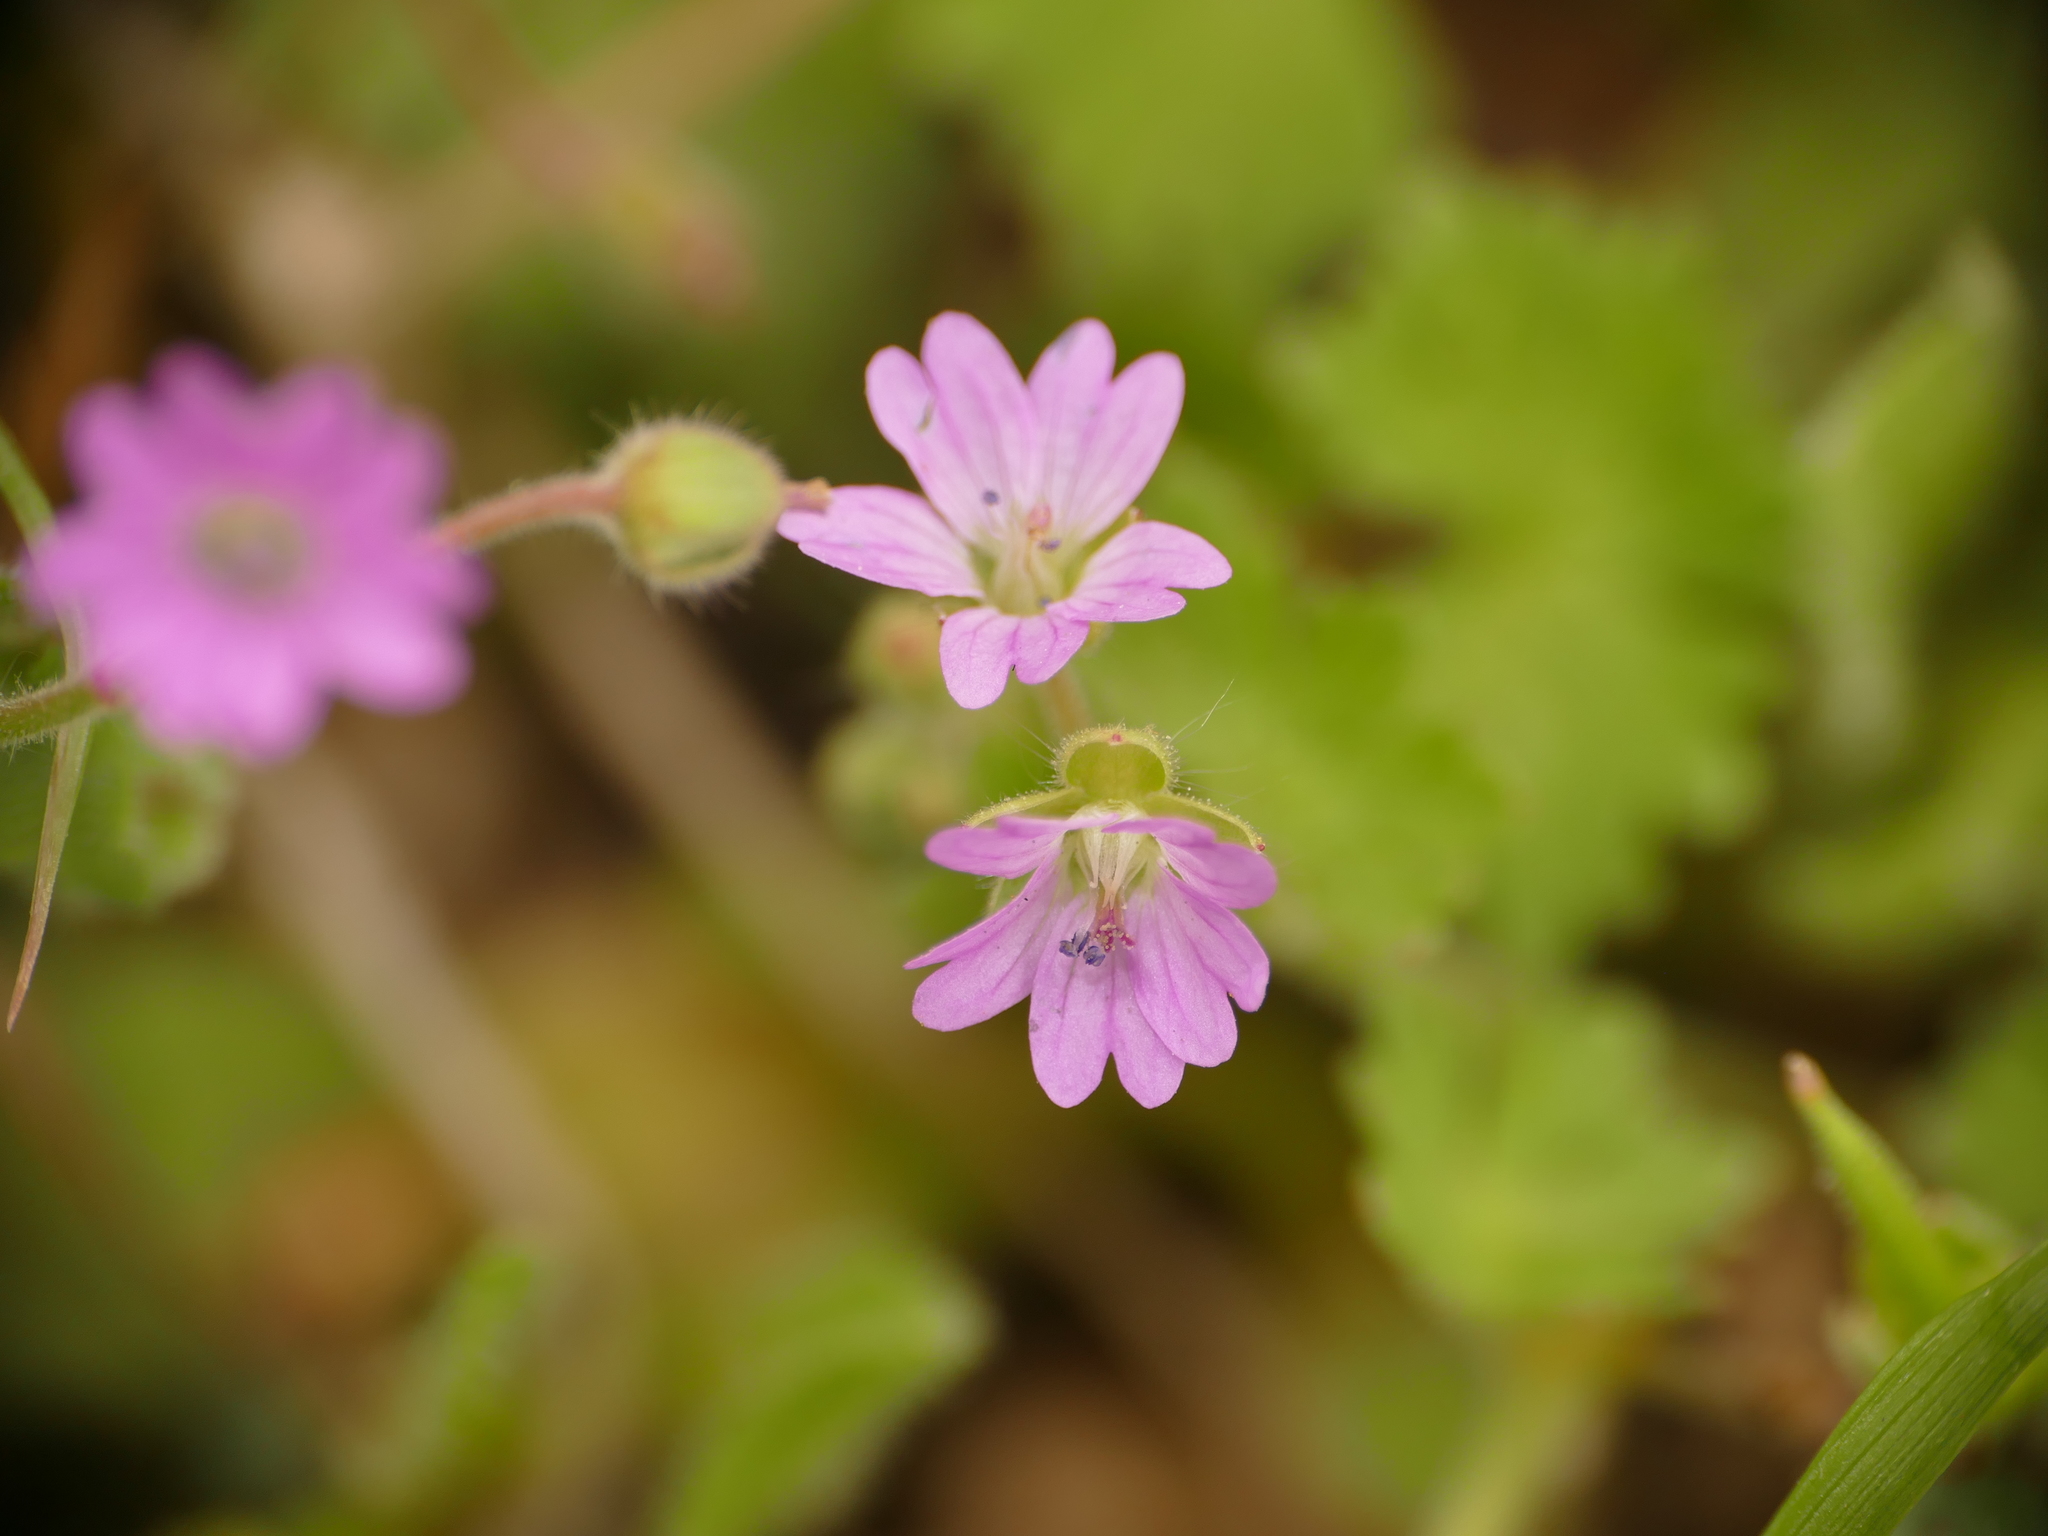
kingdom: Plantae
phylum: Tracheophyta
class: Magnoliopsida
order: Geraniales
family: Geraniaceae
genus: Geranium
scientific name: Geranium molle
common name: Dove's-foot crane's-bill
